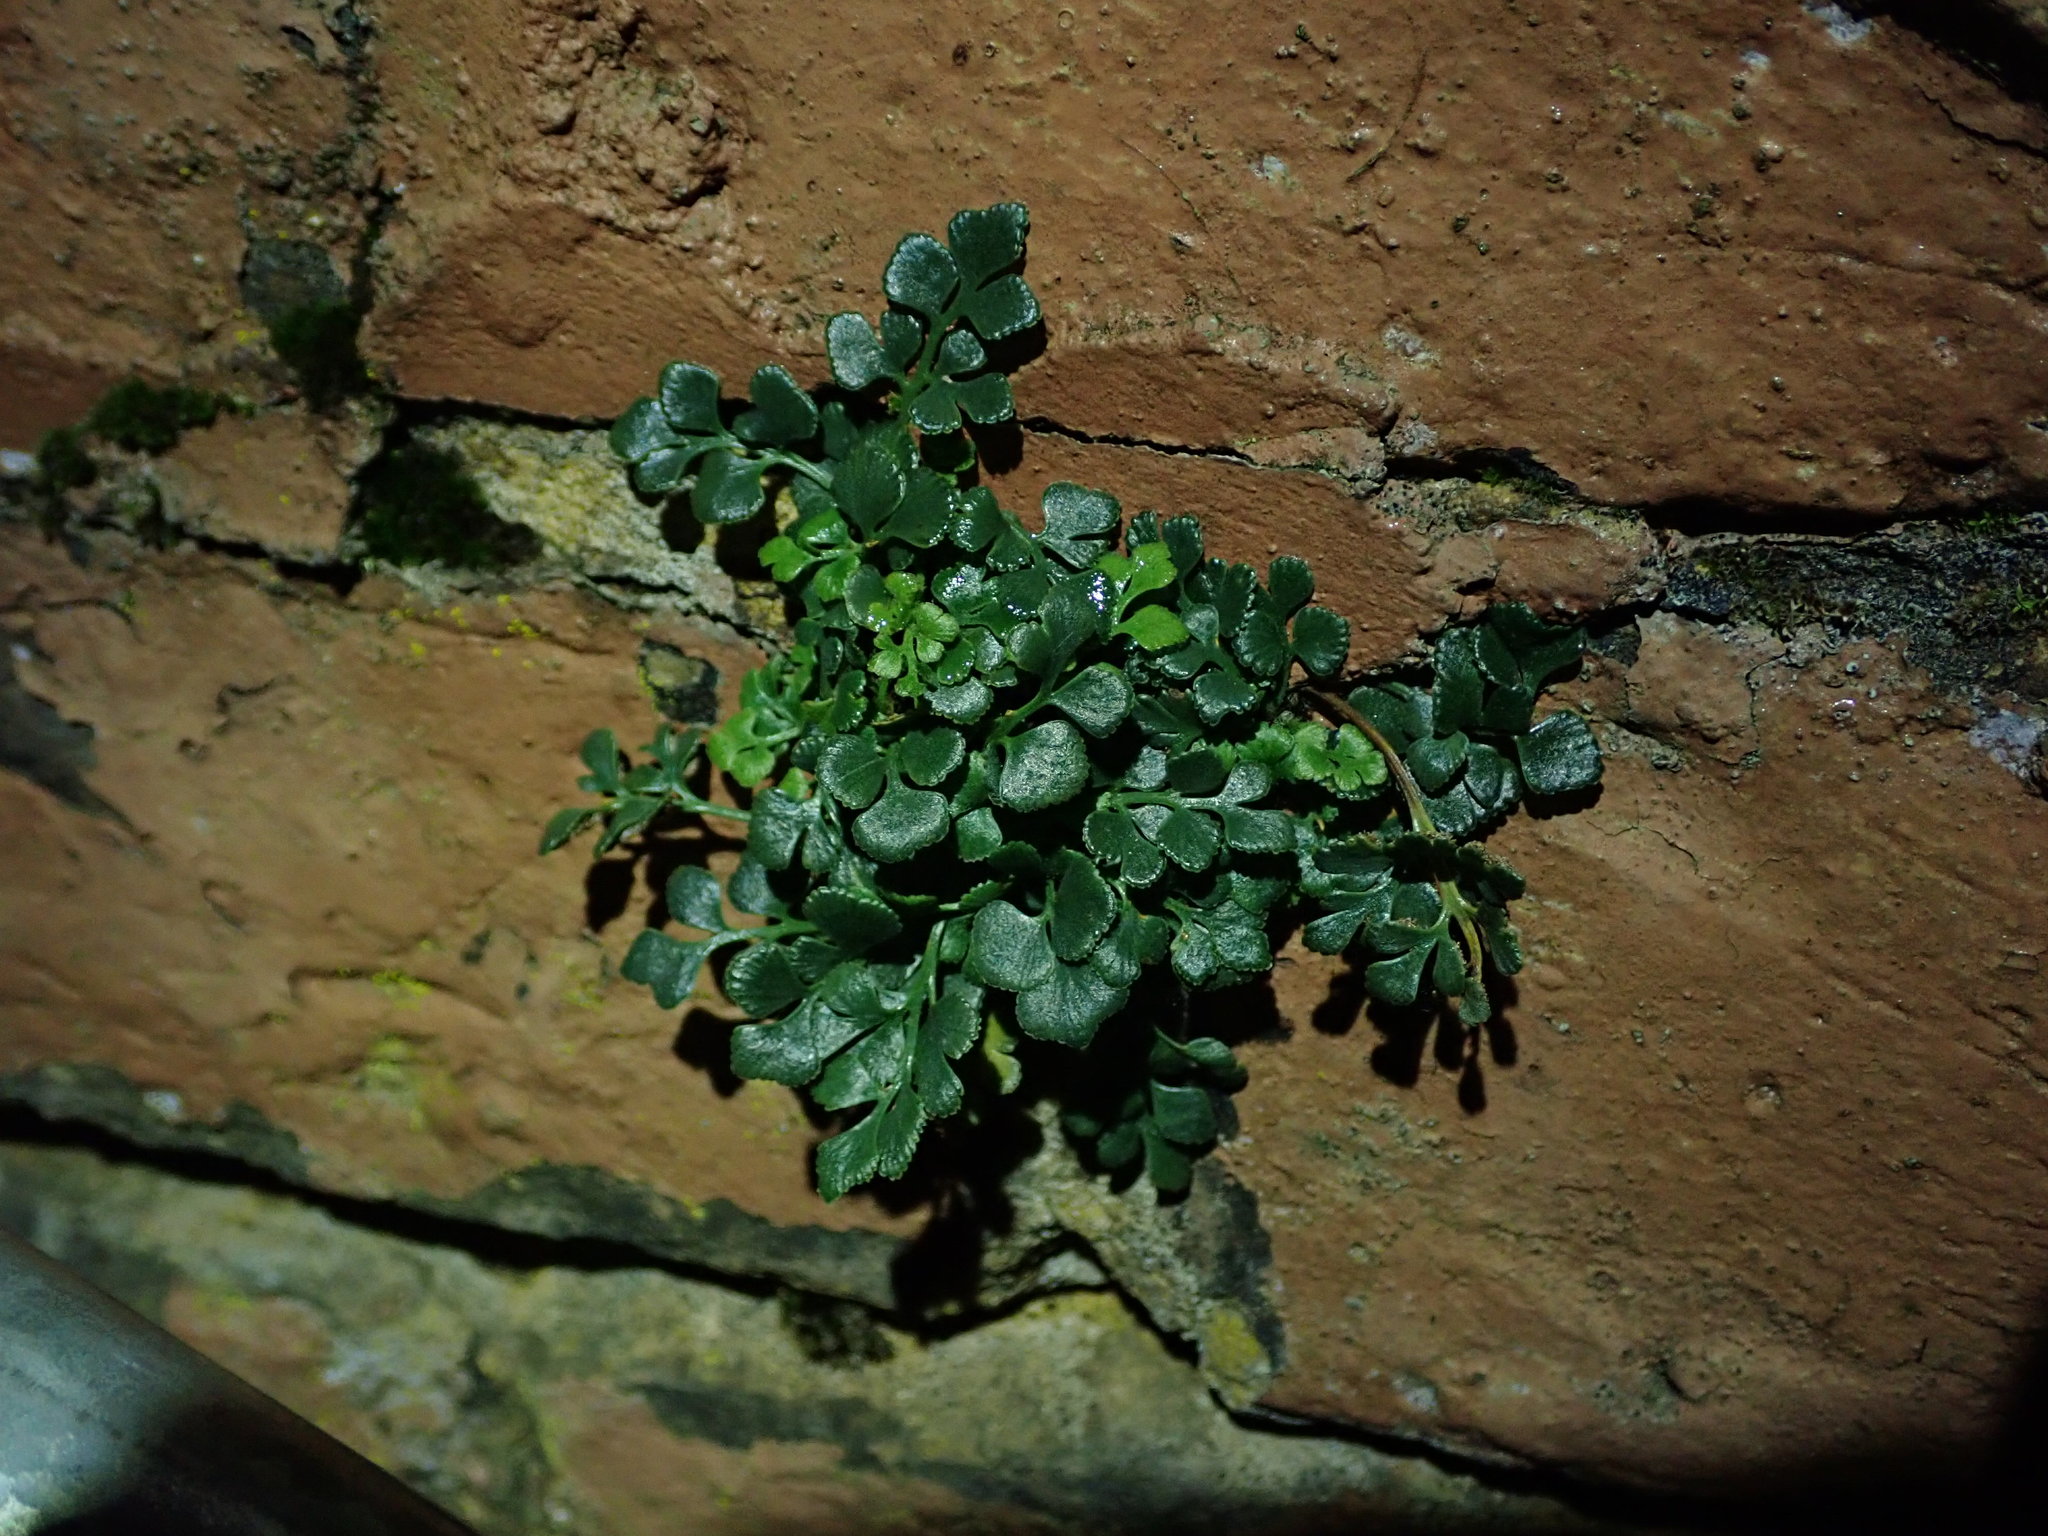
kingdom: Plantae
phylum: Tracheophyta
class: Polypodiopsida
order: Polypodiales
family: Aspleniaceae
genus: Asplenium
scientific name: Asplenium ruta-muraria
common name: Wall-rue
